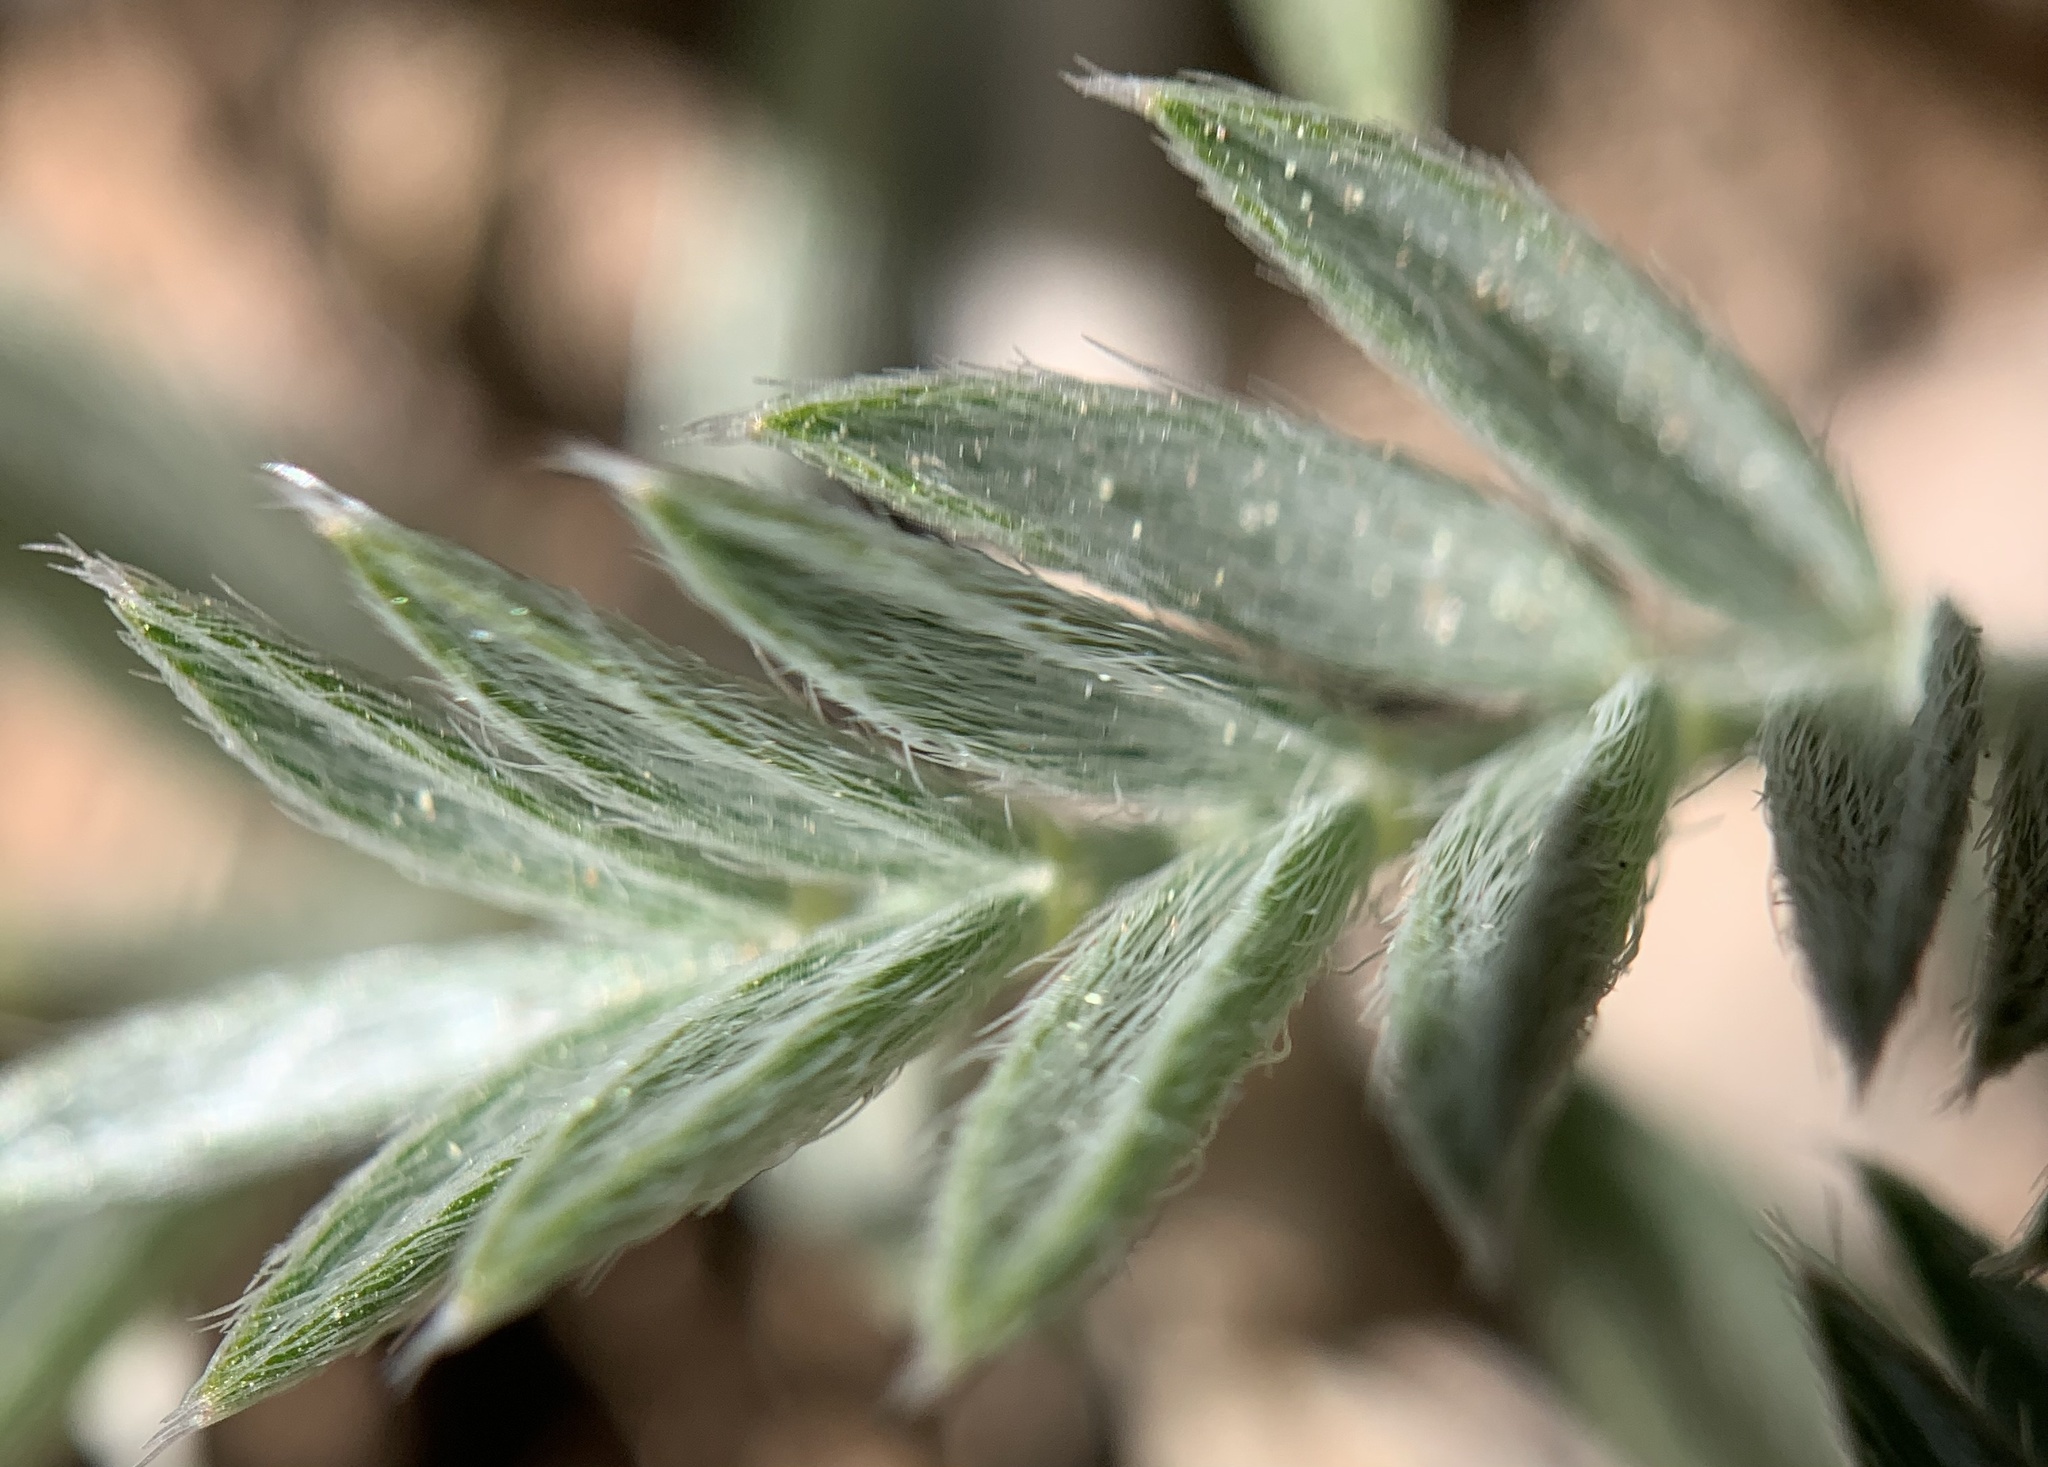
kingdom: Plantae
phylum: Tracheophyta
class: Magnoliopsida
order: Fabales
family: Fabaceae
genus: Astragalus
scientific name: Astragalus humistratus
